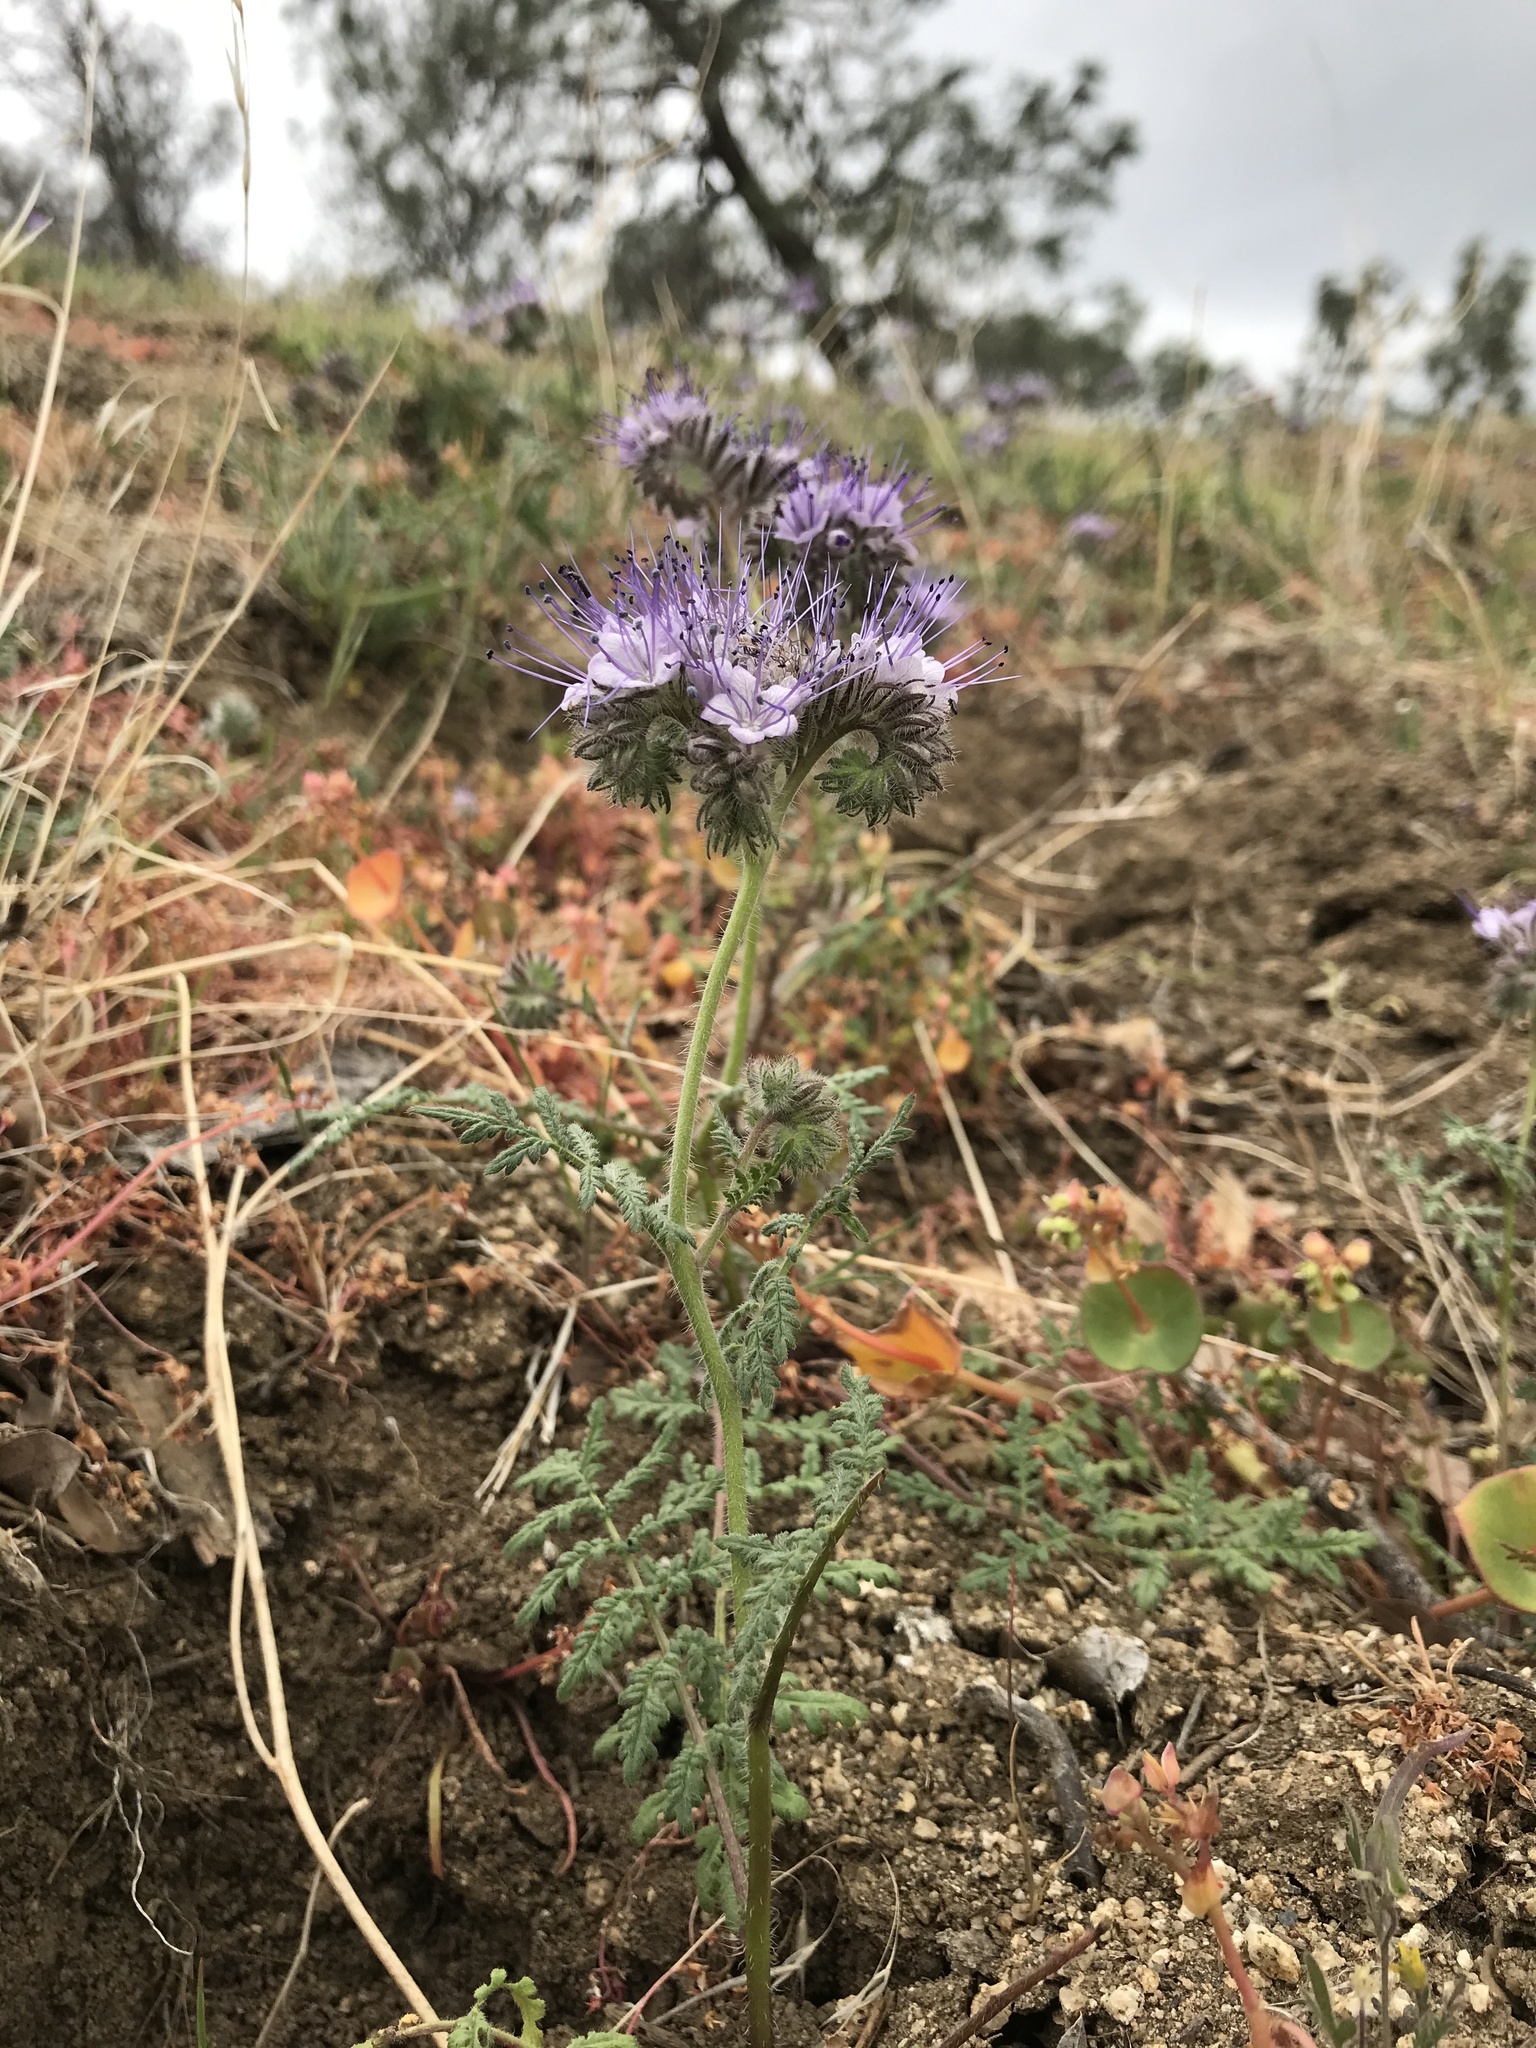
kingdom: Plantae
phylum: Tracheophyta
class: Magnoliopsida
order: Boraginales
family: Hydrophyllaceae
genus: Phacelia
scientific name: Phacelia tanacetifolia
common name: Phacelia
